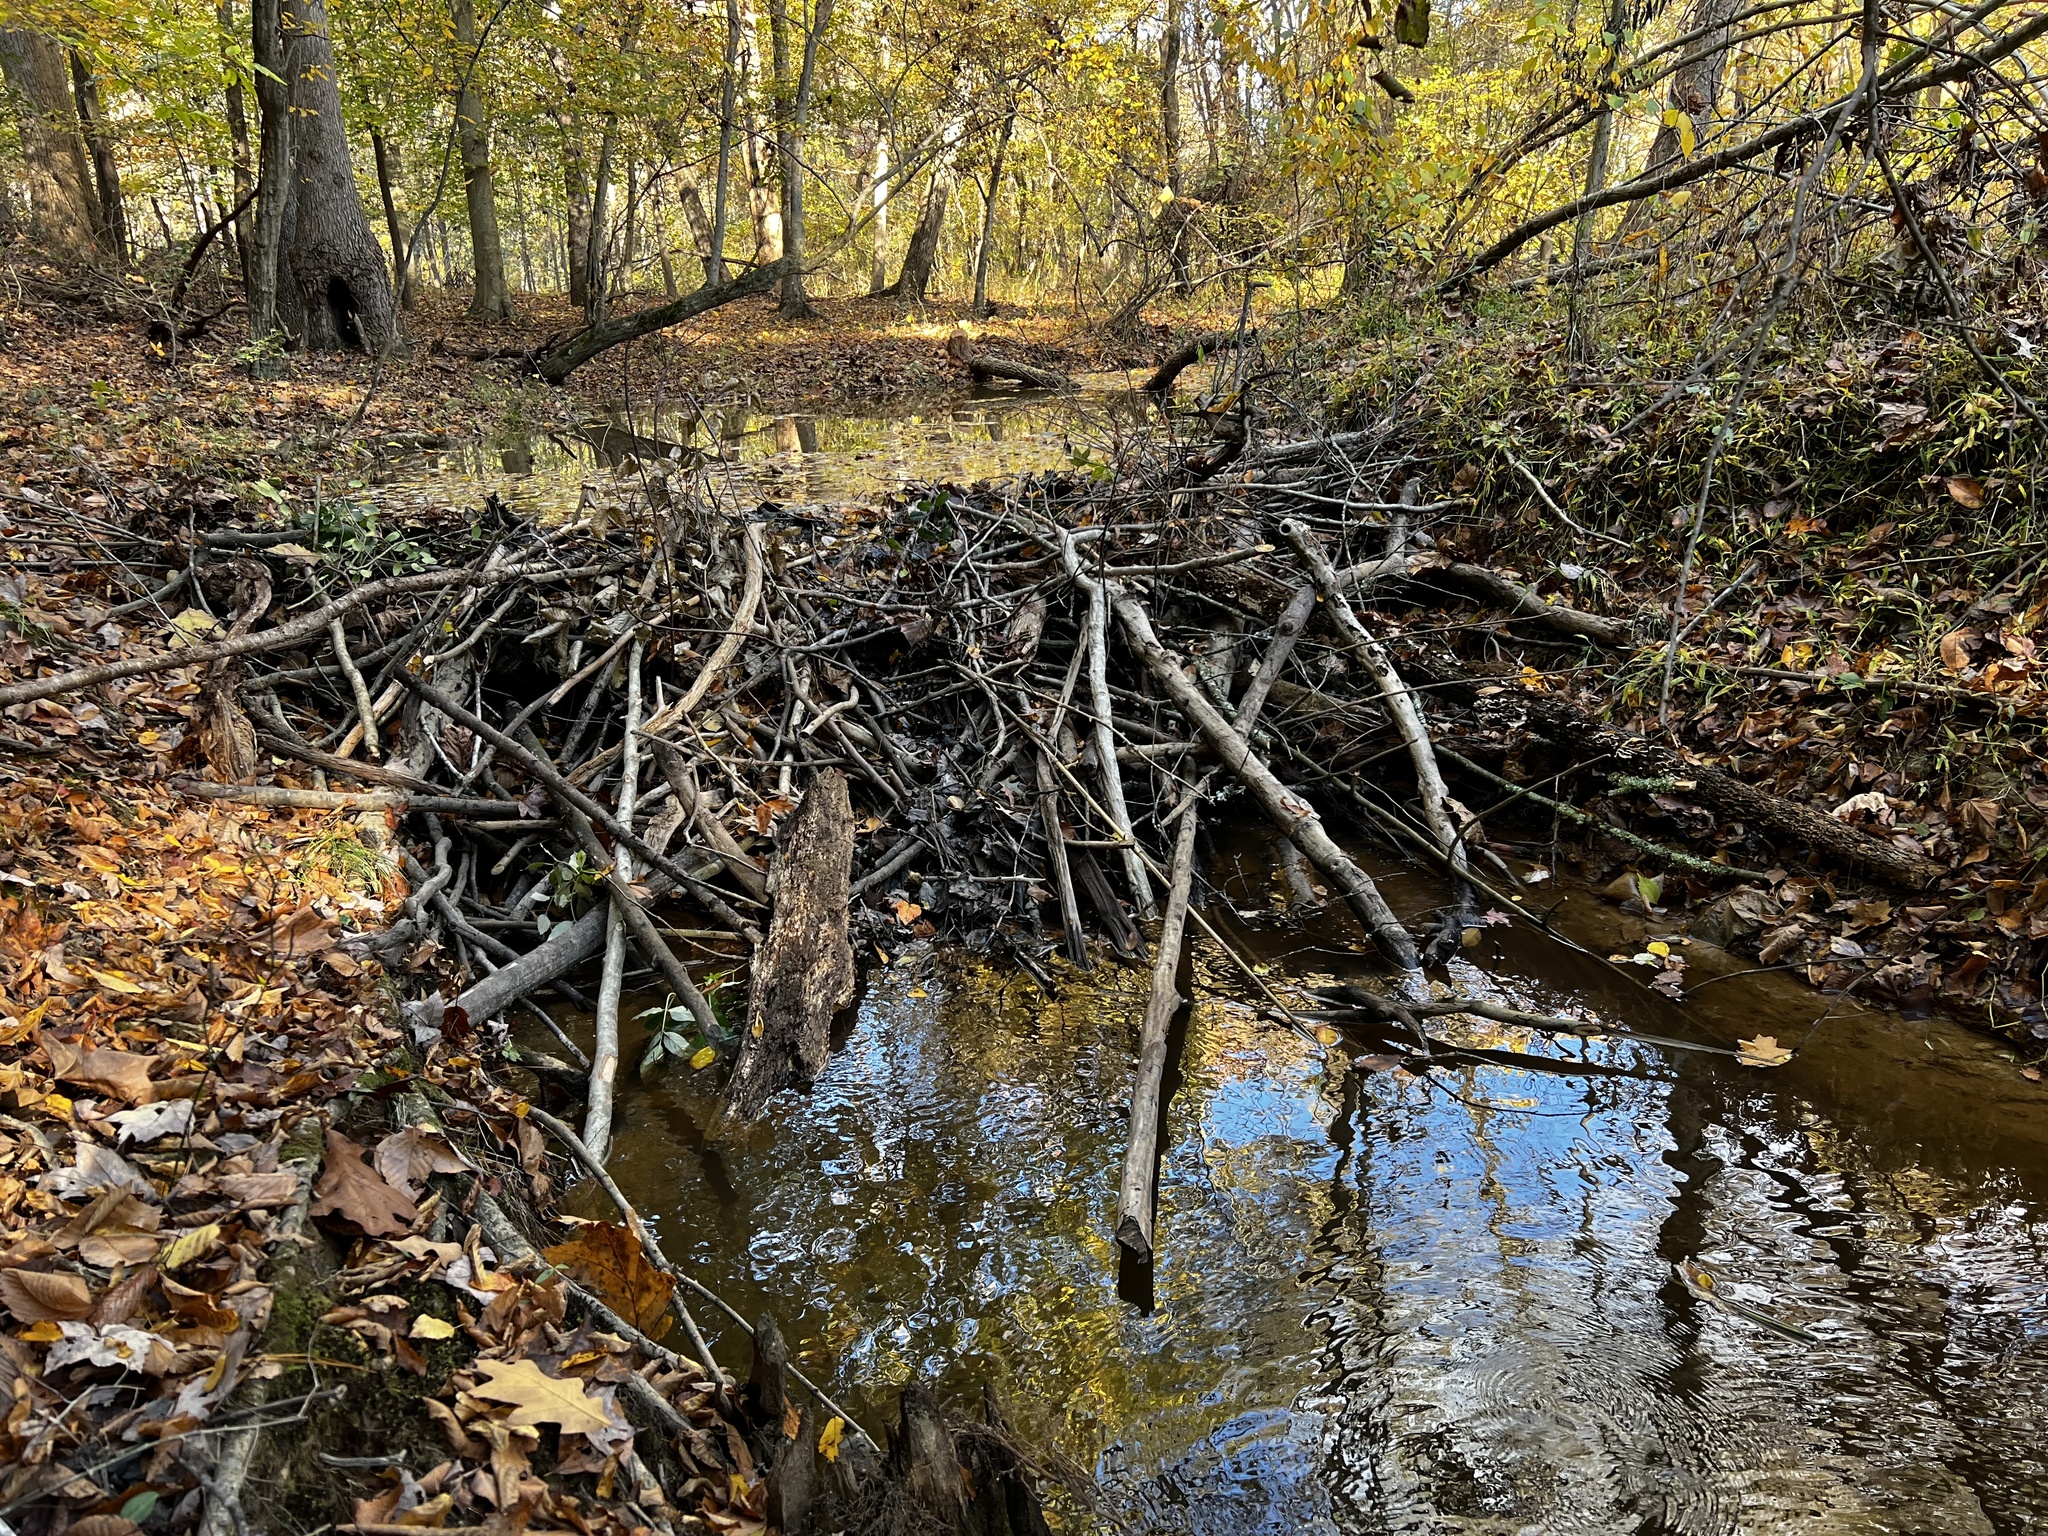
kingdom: Animalia
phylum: Chordata
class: Mammalia
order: Rodentia
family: Castoridae
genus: Castor
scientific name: Castor canadensis
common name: American beaver
